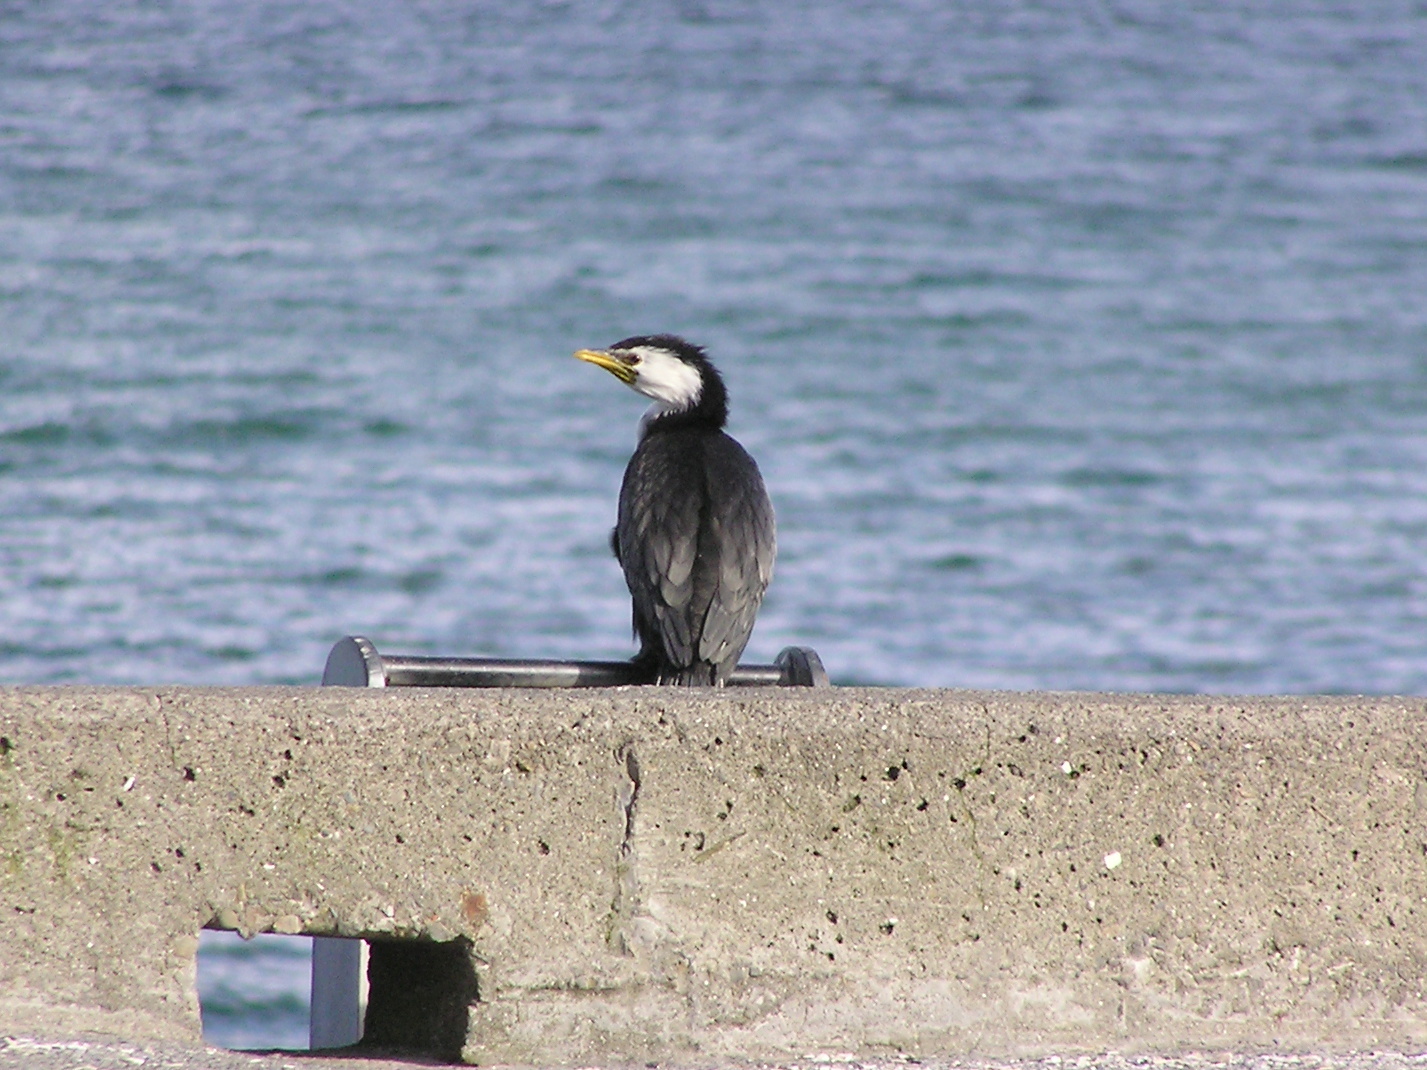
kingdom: Animalia
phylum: Chordata
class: Aves
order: Suliformes
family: Phalacrocoracidae
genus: Microcarbo
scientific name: Microcarbo melanoleucos
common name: Little pied cormorant
